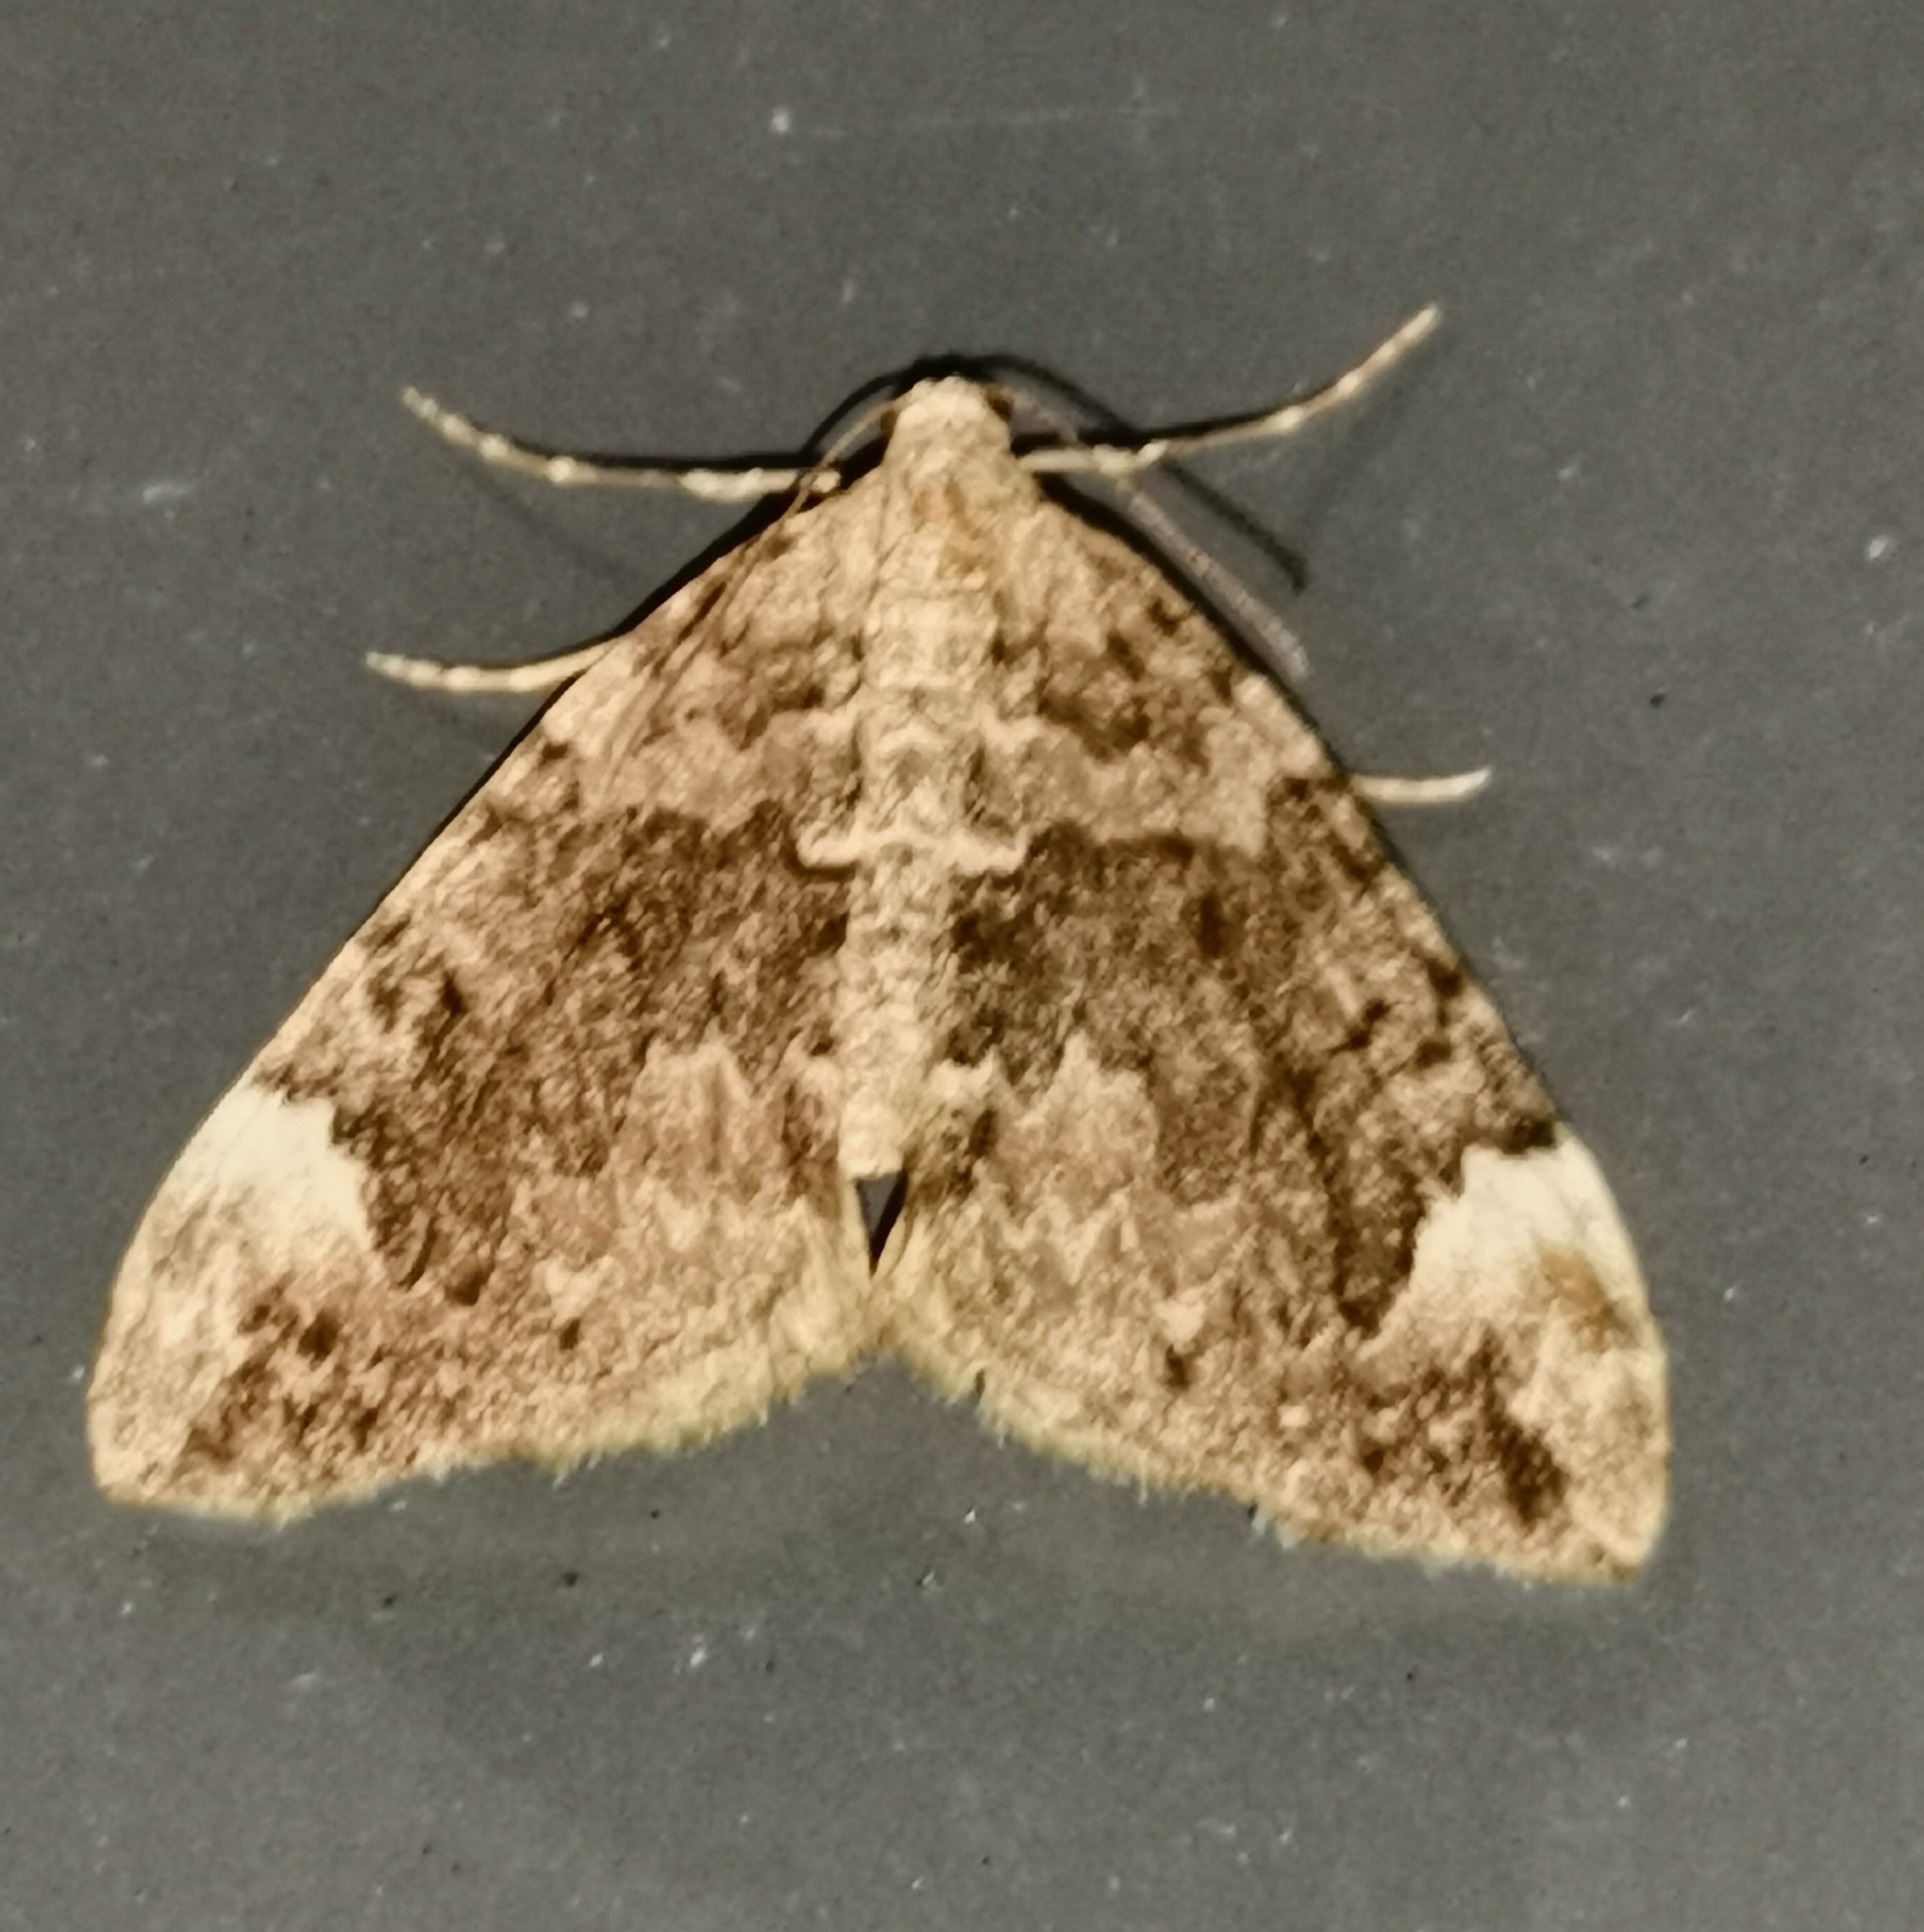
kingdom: Animalia
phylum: Arthropoda
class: Insecta
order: Lepidoptera
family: Geometridae
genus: Dysstroma
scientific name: Dysstroma citrata
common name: Dark marbled carpet
